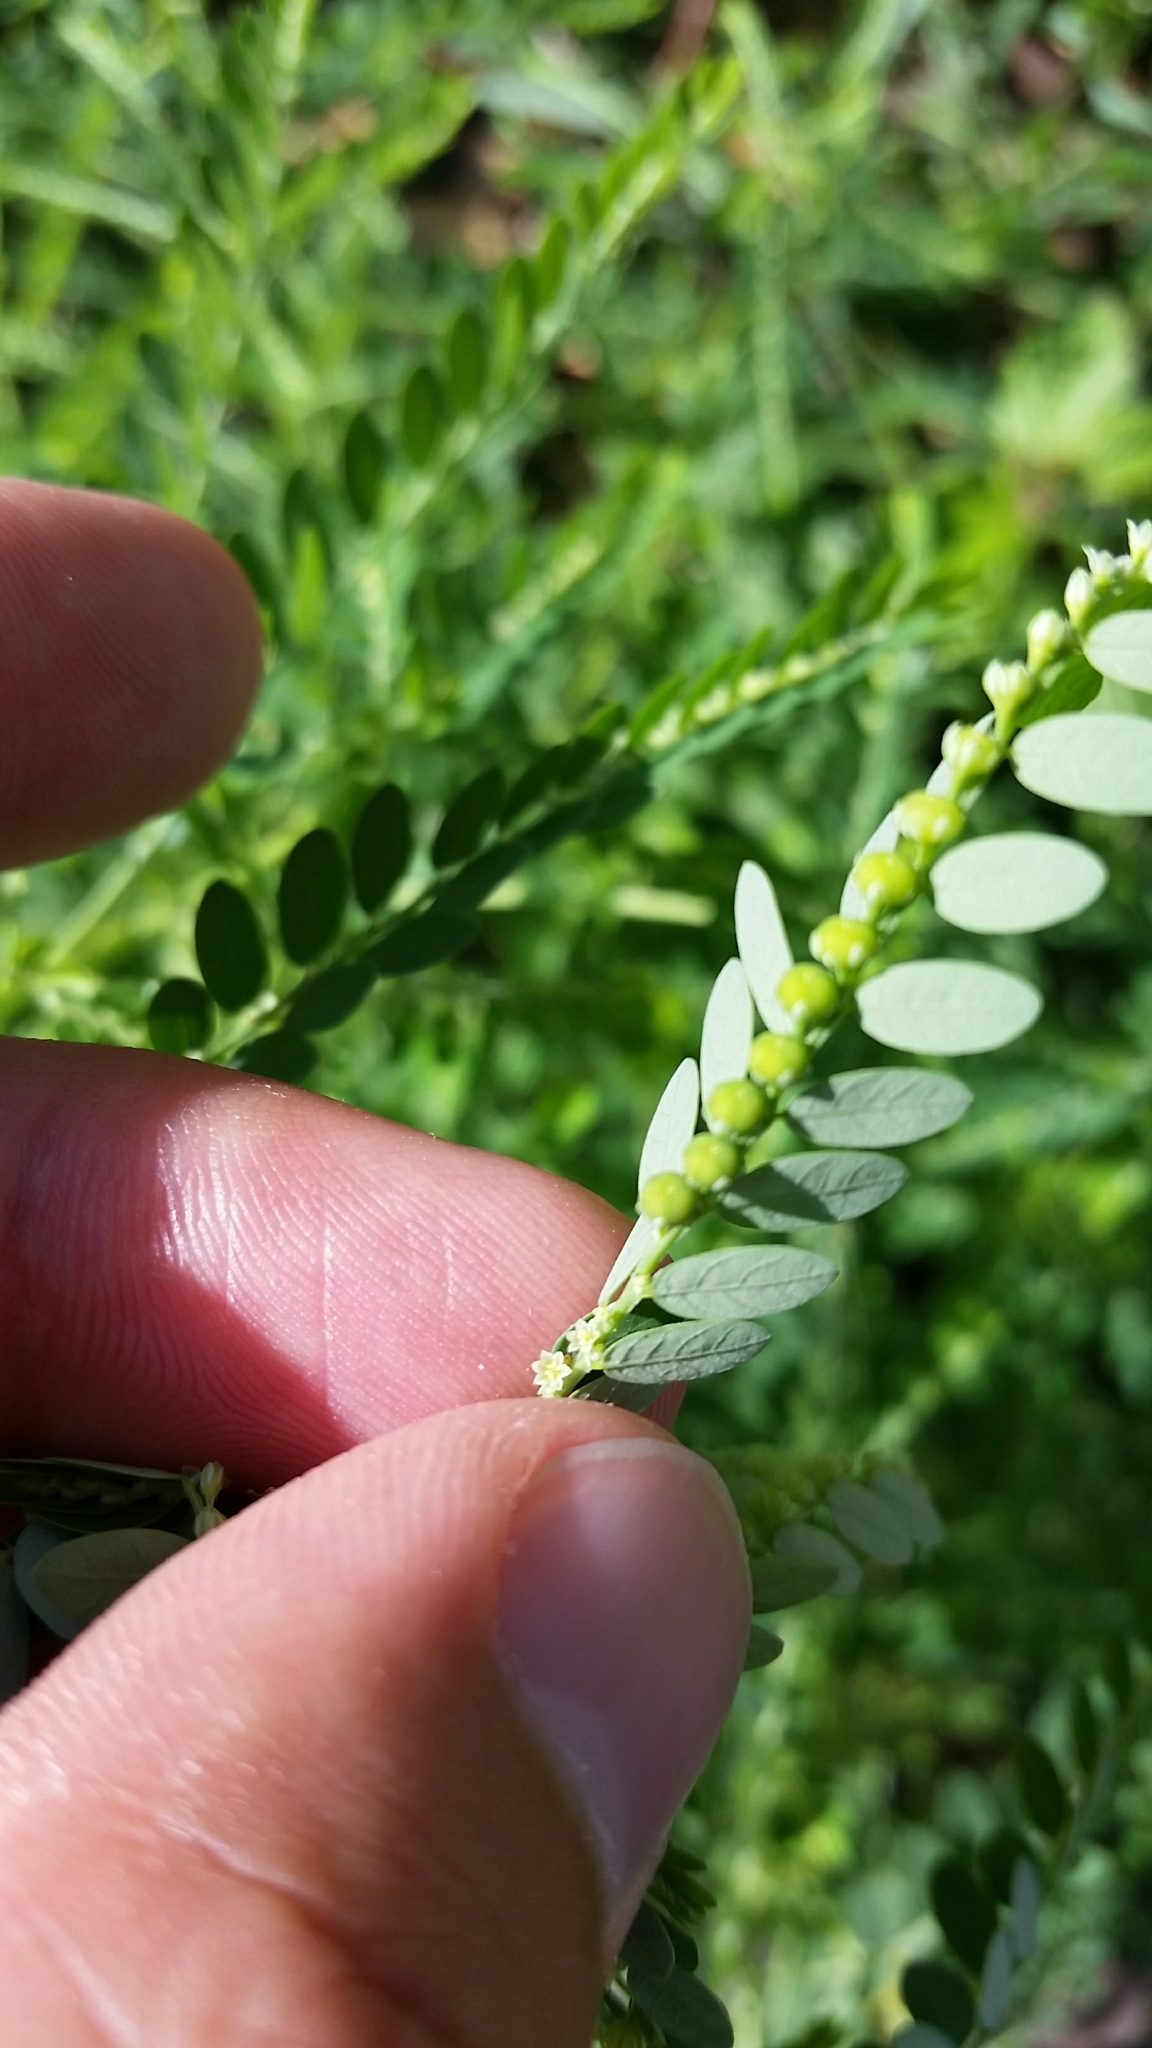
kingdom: Plantae
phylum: Tracheophyta
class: Magnoliopsida
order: Malpighiales
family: Phyllanthaceae
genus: Phyllanthus
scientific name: Phyllanthus fraternus
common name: Gulf leaf-flower
